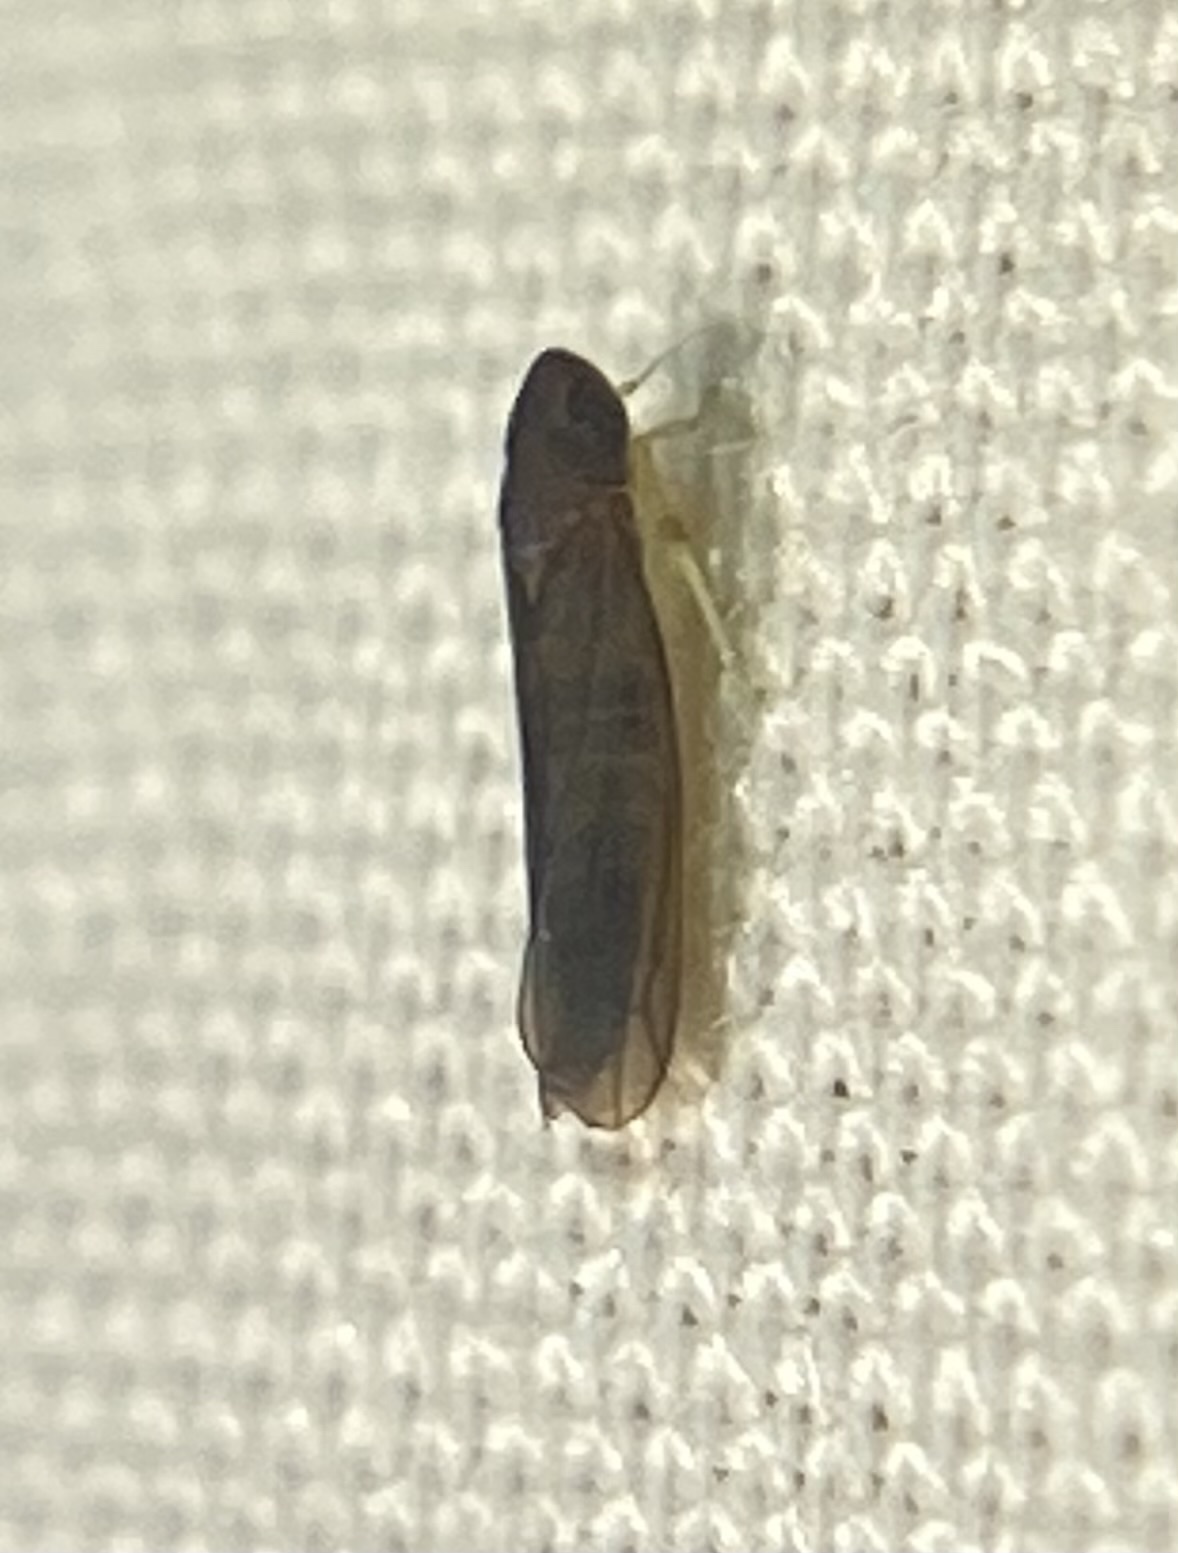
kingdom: Animalia
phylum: Arthropoda
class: Insecta
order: Hemiptera
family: Cicadellidae
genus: Joruma
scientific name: Joruma pisca
